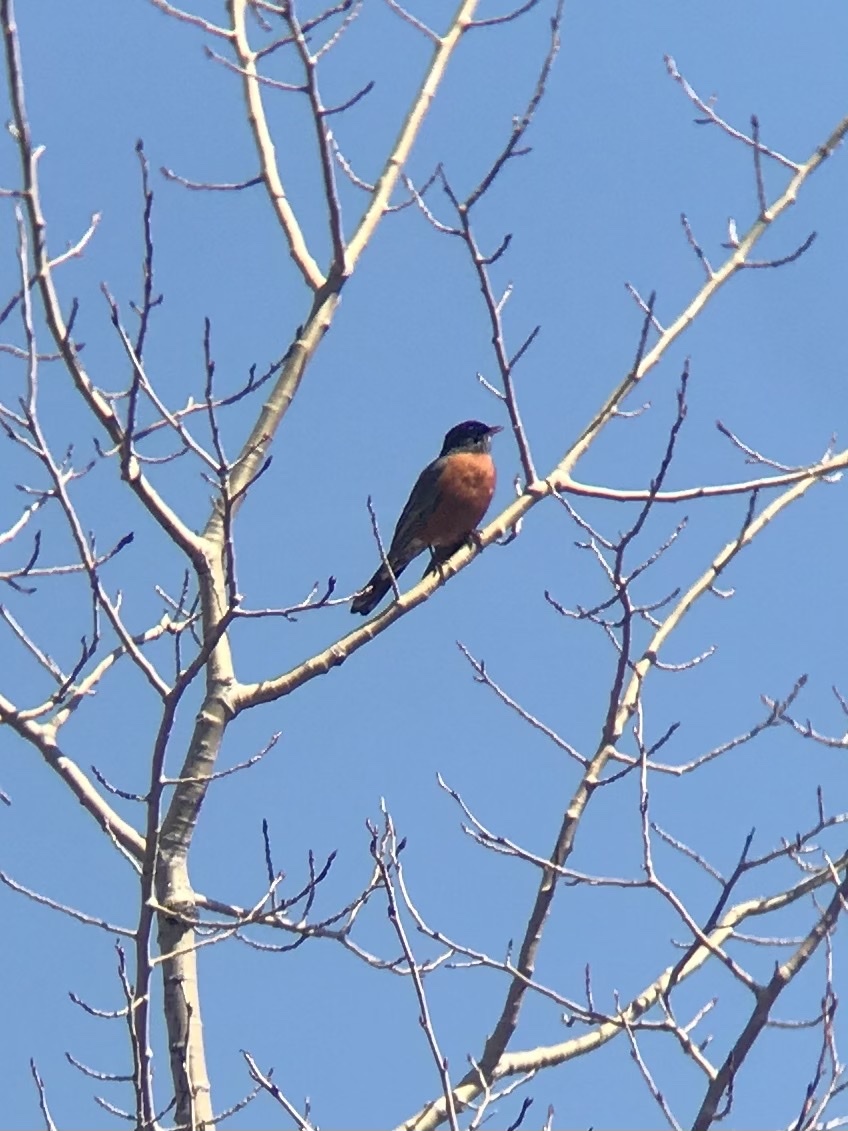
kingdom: Animalia
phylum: Chordata
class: Aves
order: Passeriformes
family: Turdidae
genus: Turdus
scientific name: Turdus migratorius
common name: American robin
